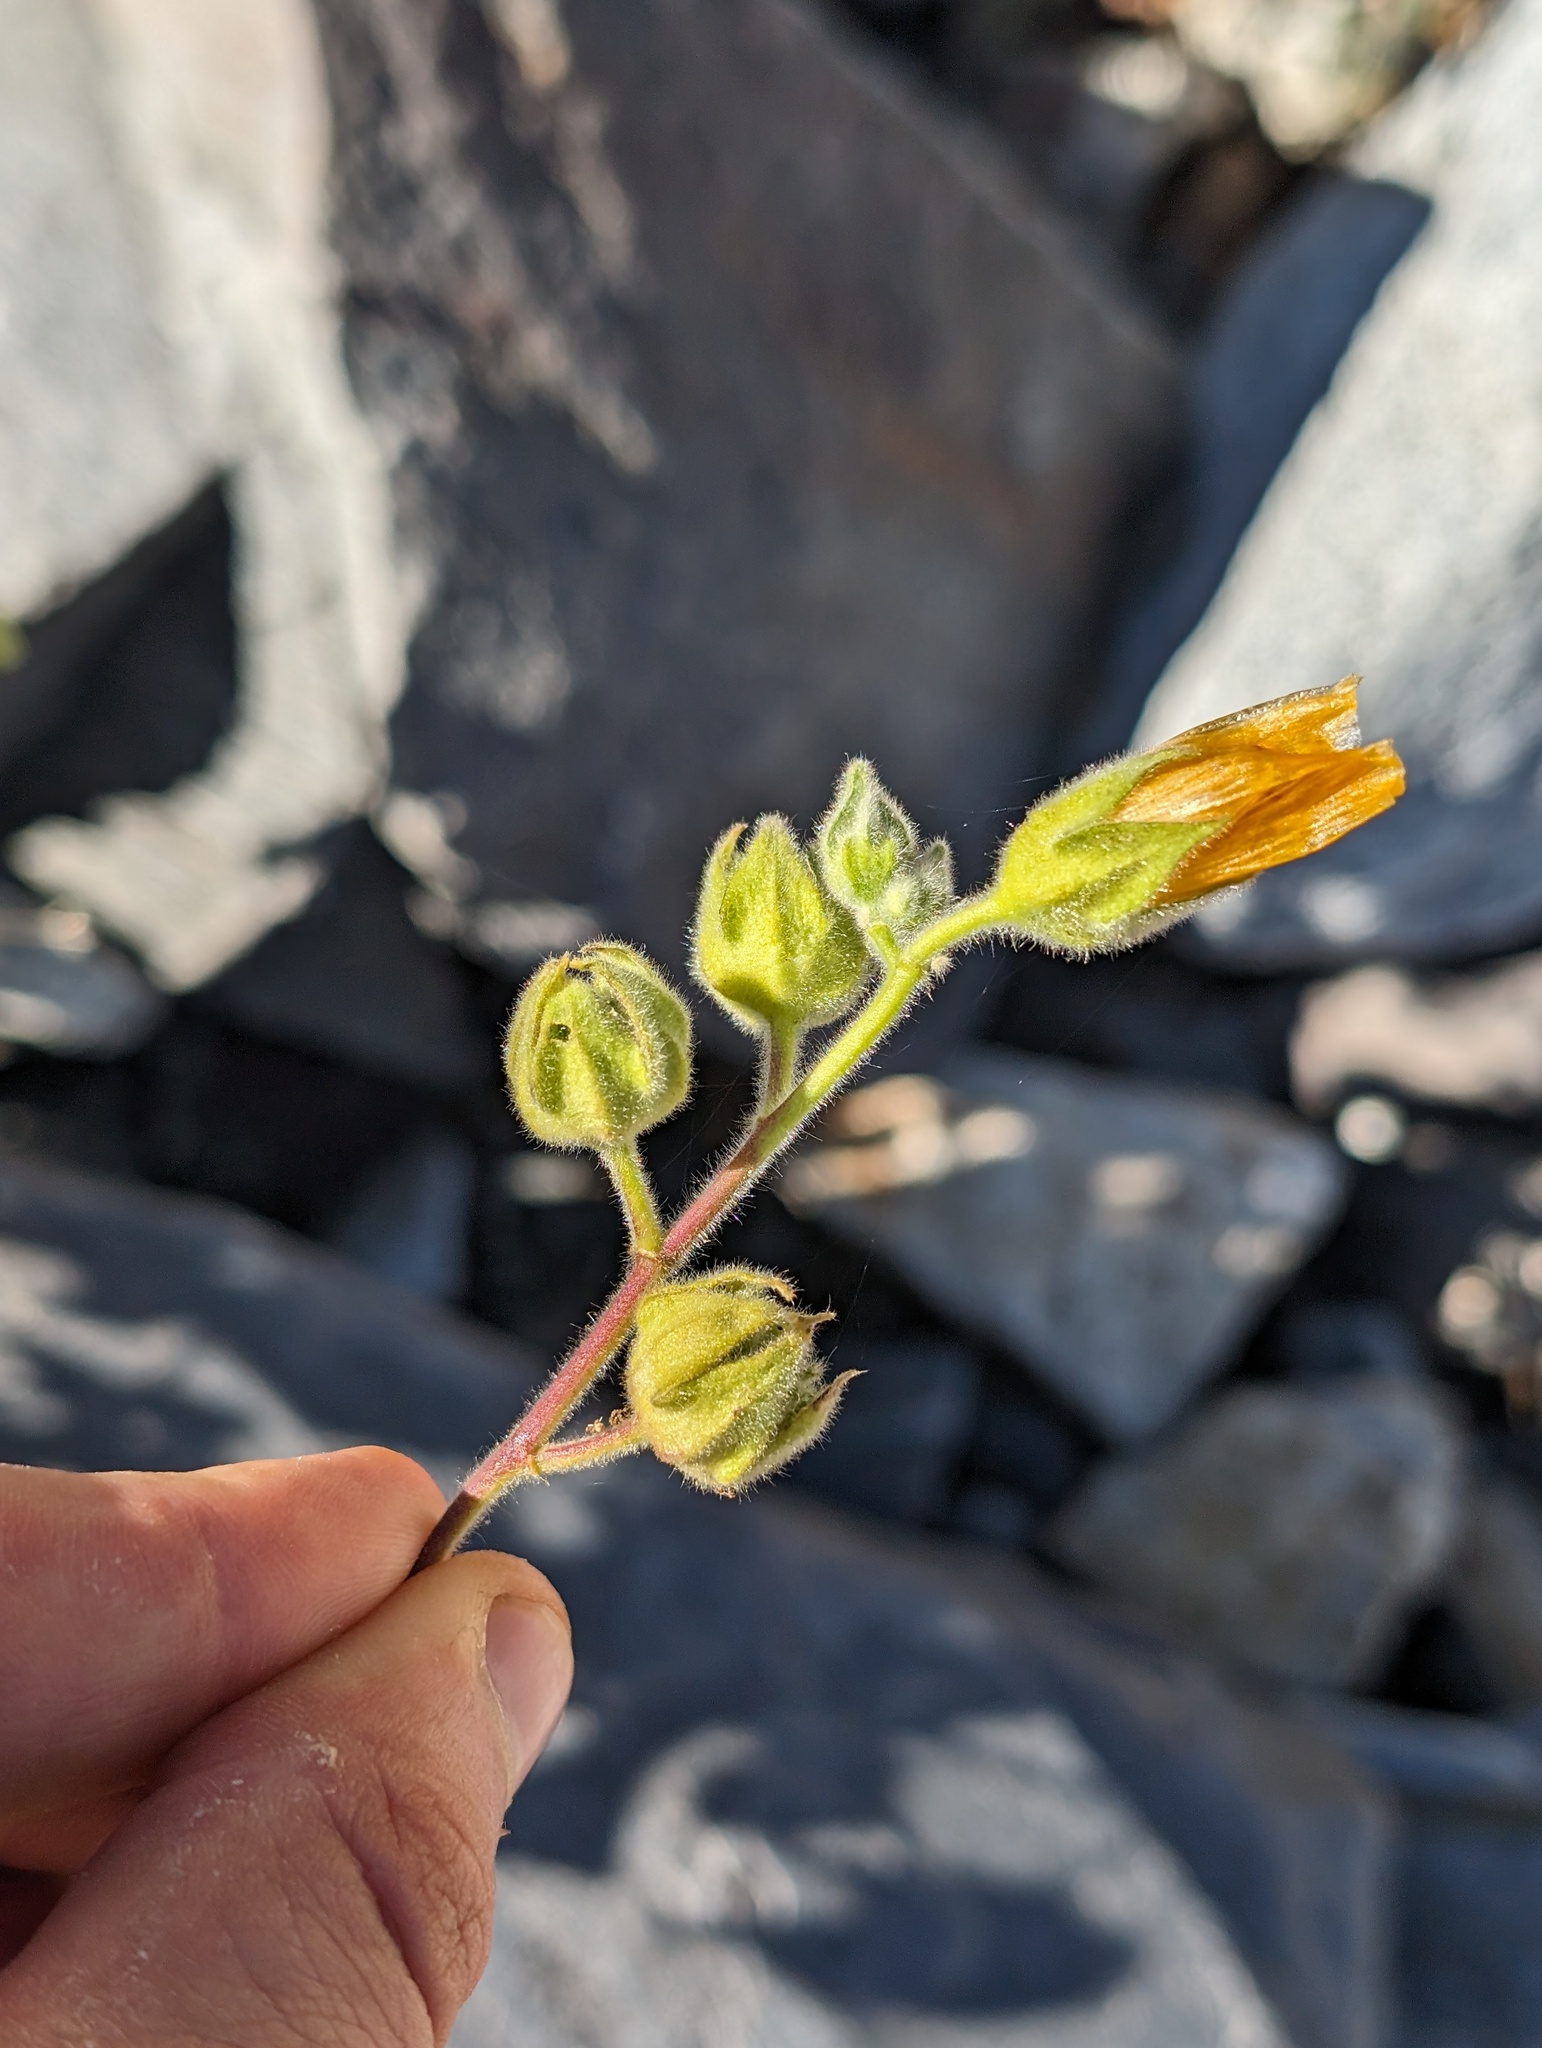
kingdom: Plantae
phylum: Tracheophyta
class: Magnoliopsida
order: Malvales
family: Malvaceae
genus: Abutilon
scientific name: Abutilon palmeri
